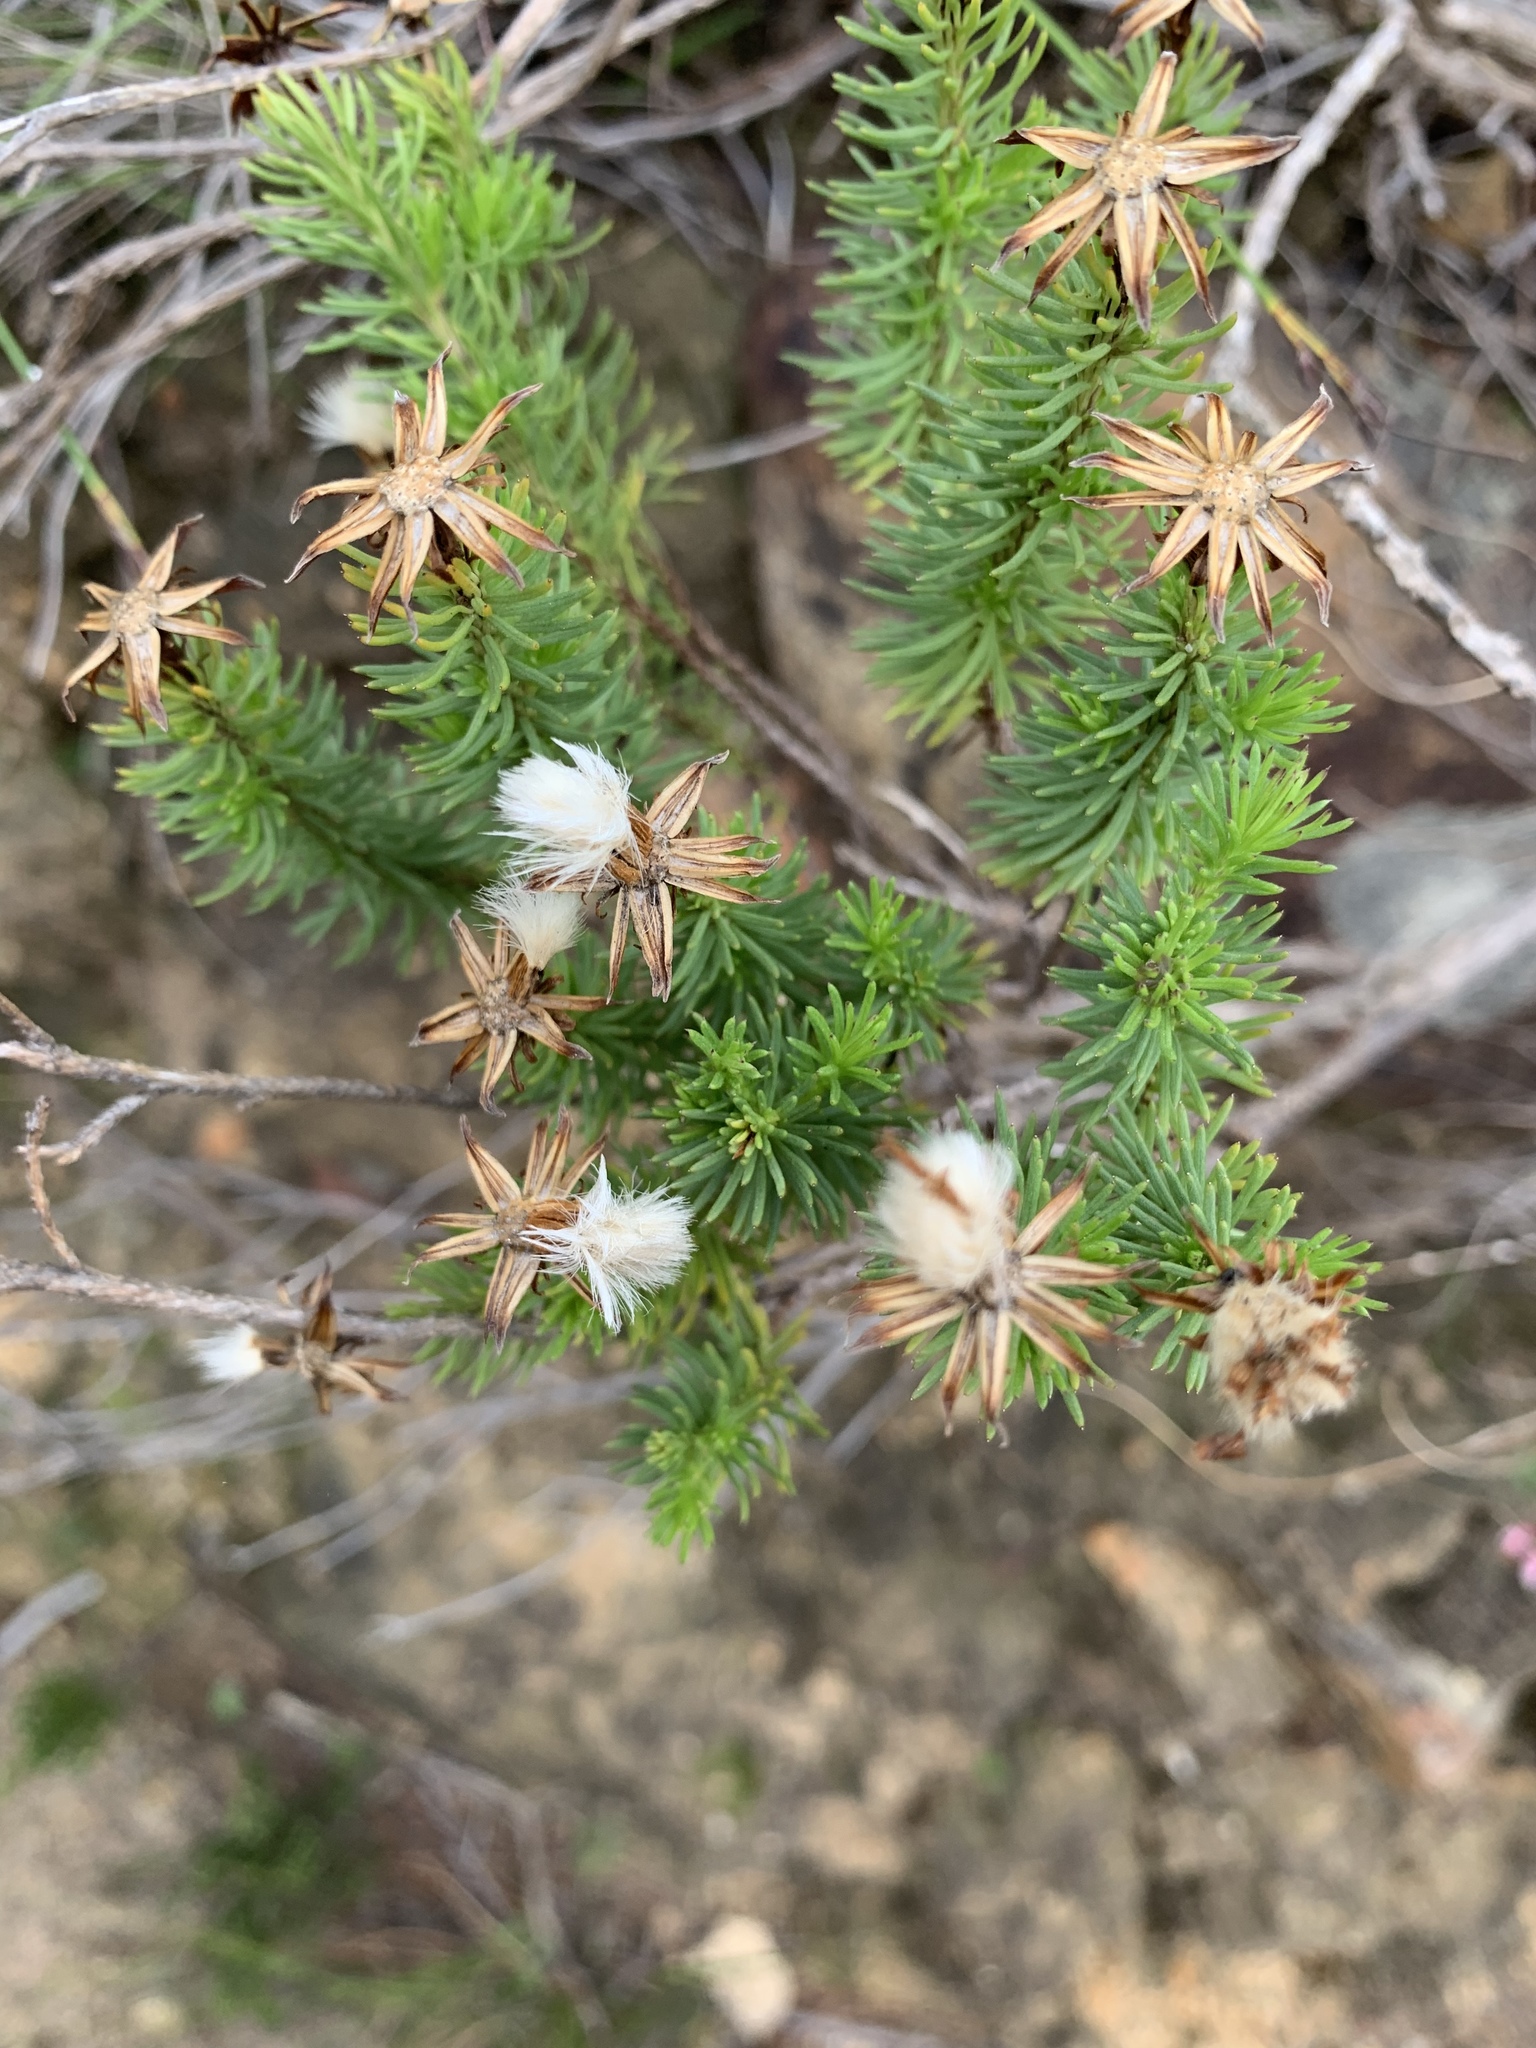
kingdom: Plantae
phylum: Tracheophyta
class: Magnoliopsida
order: Asterales
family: Asteraceae
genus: Senecio
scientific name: Senecio pinifolius
